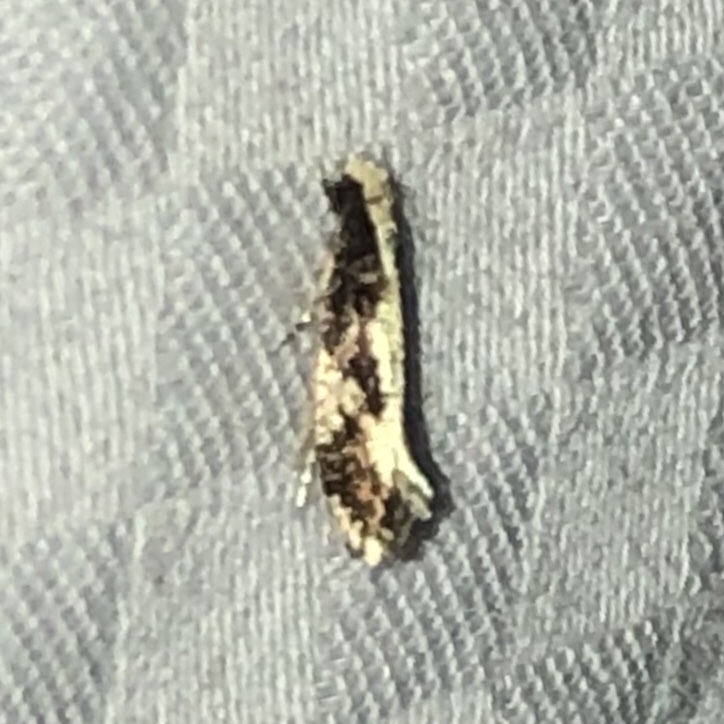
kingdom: Animalia
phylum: Arthropoda
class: Insecta
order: Lepidoptera
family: Tineidae
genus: Monopis
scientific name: Monopis dorsistrigella
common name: Skunkback monopis moth
